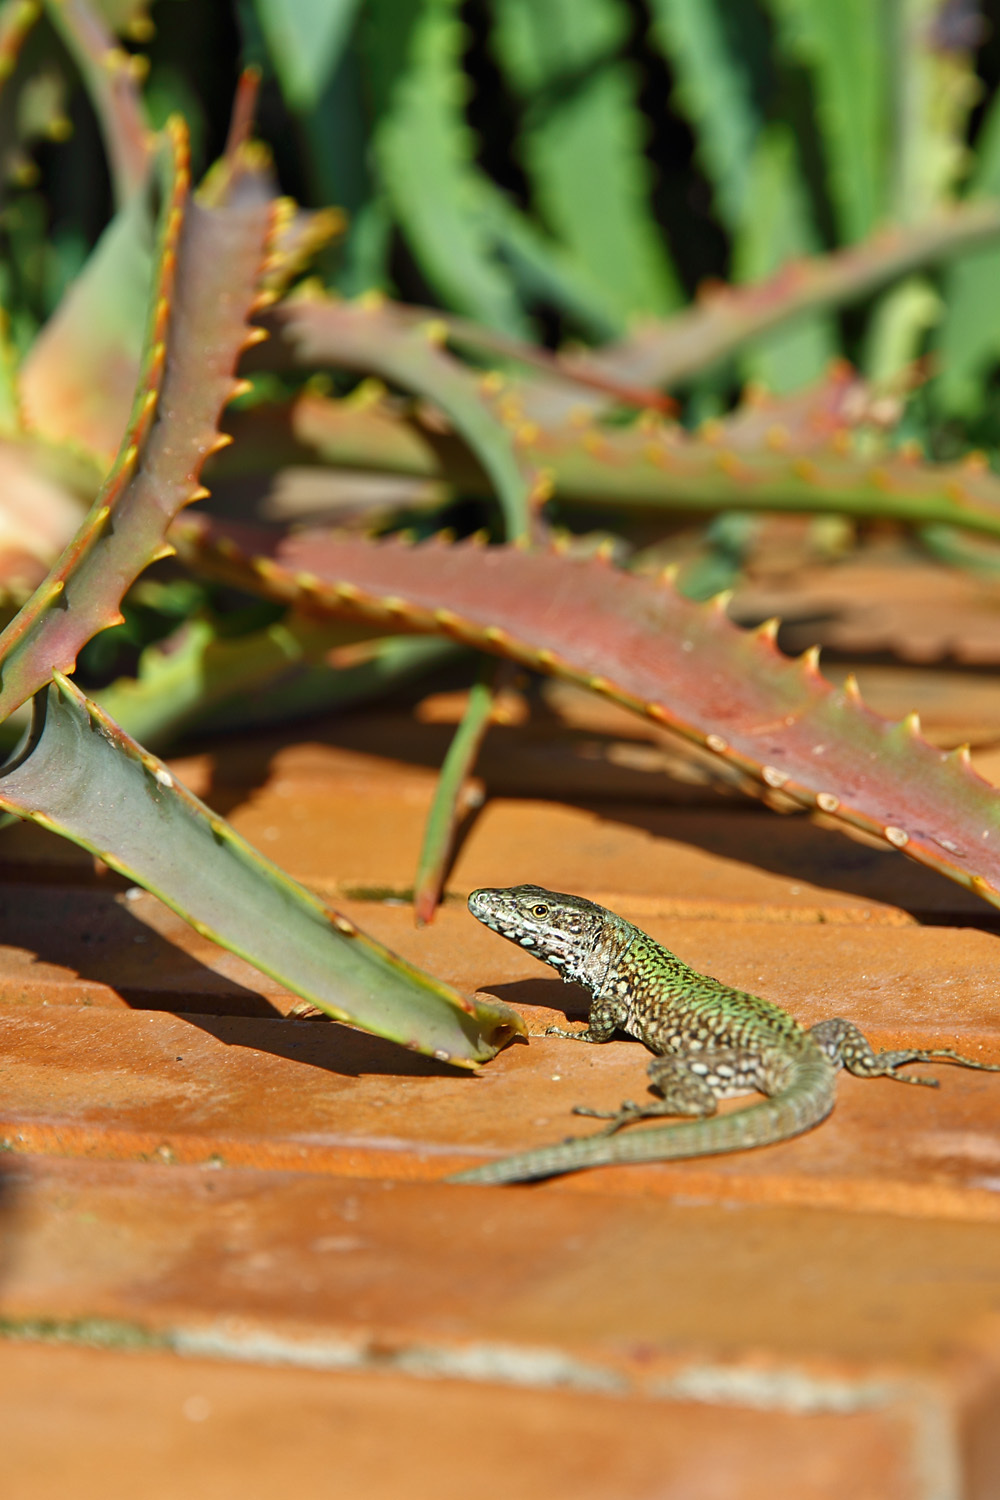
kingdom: Animalia
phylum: Chordata
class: Squamata
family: Lacertidae
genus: Podarcis
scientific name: Podarcis muralis
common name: Common wall lizard
